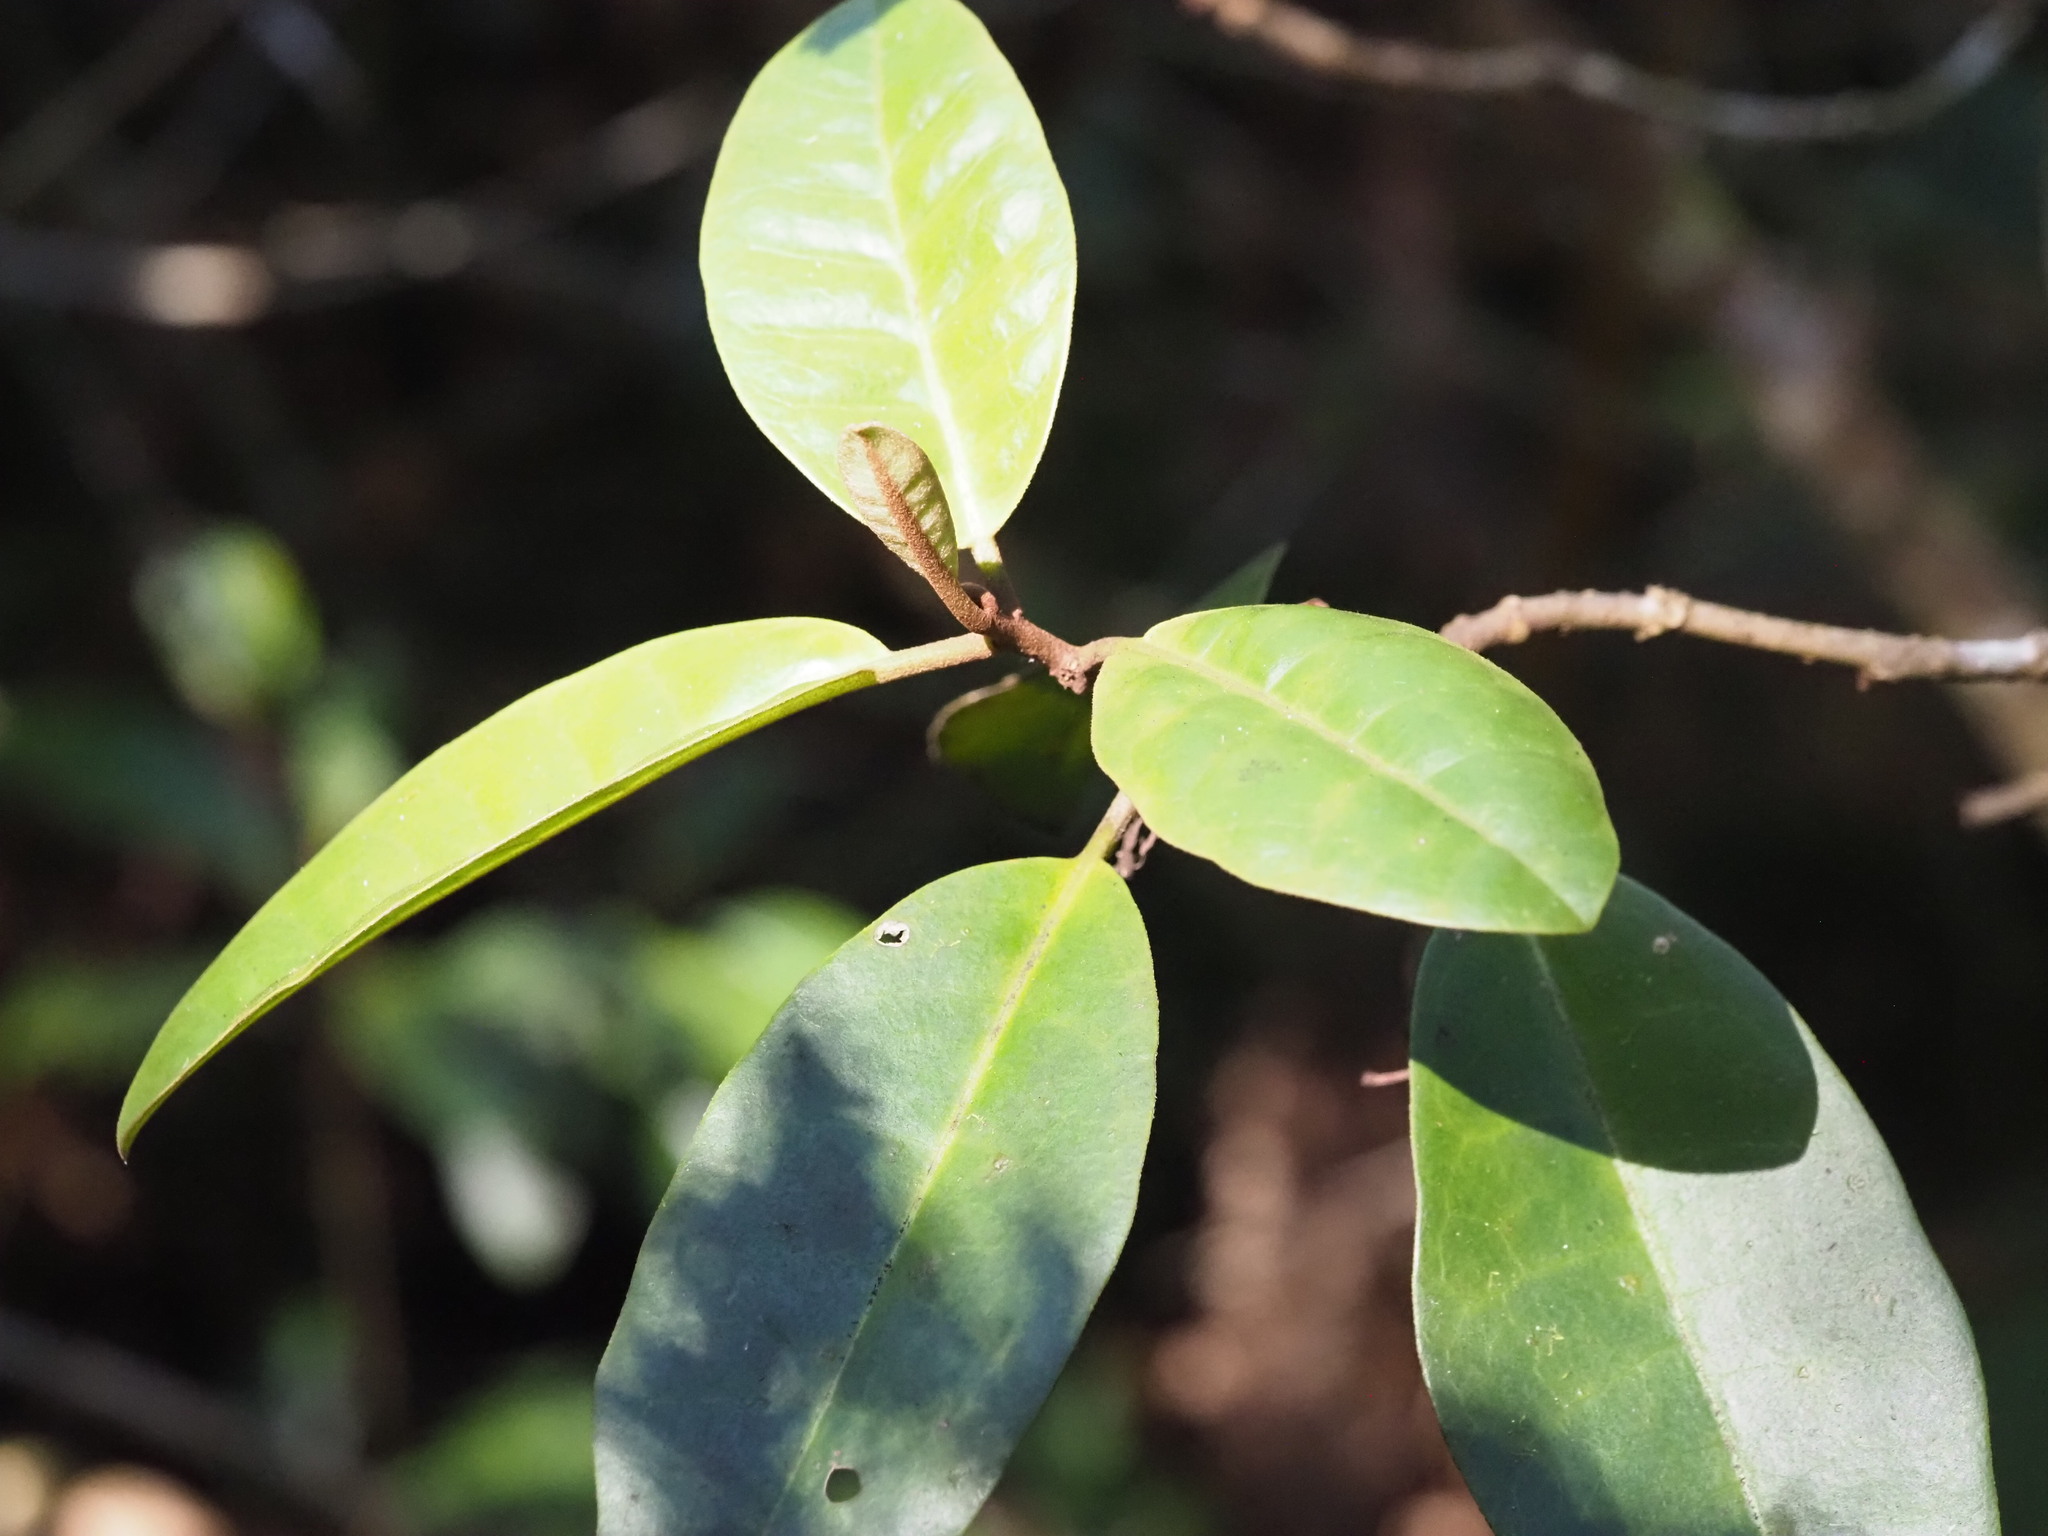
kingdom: Plantae
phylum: Tracheophyta
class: Magnoliopsida
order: Solanales
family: Solanaceae
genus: Nothocestrum
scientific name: Nothocestrum longifolium
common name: Long-leaved nothocestrum
